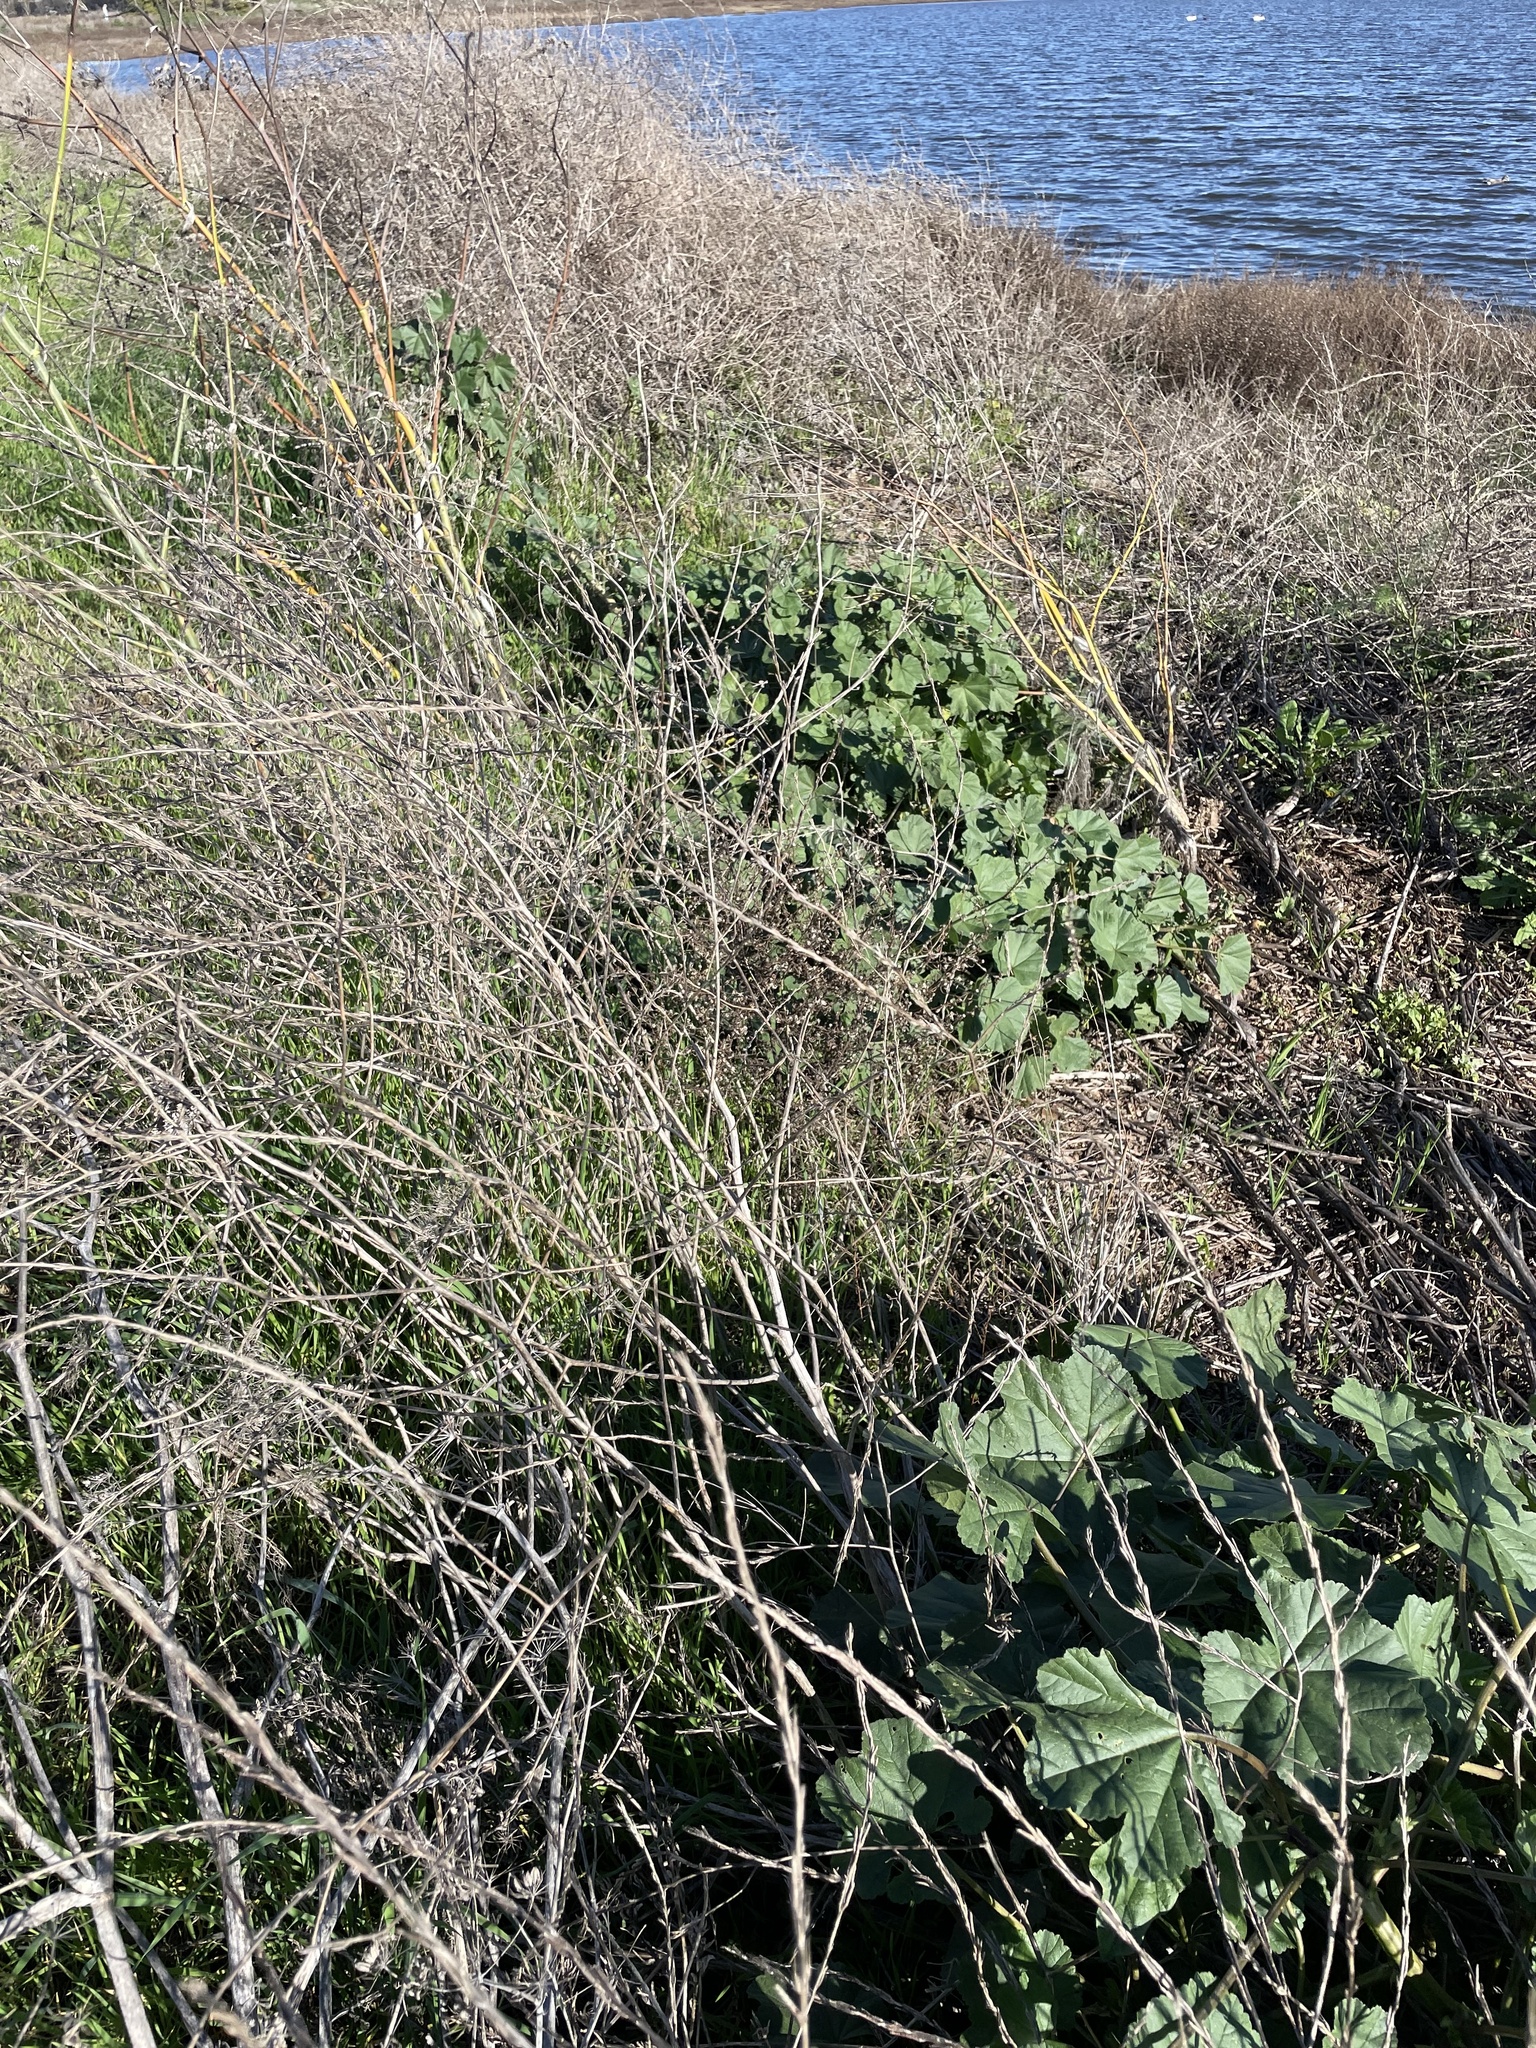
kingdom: Plantae
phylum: Tracheophyta
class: Magnoliopsida
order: Malvales
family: Malvaceae
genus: Malva
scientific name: Malva
